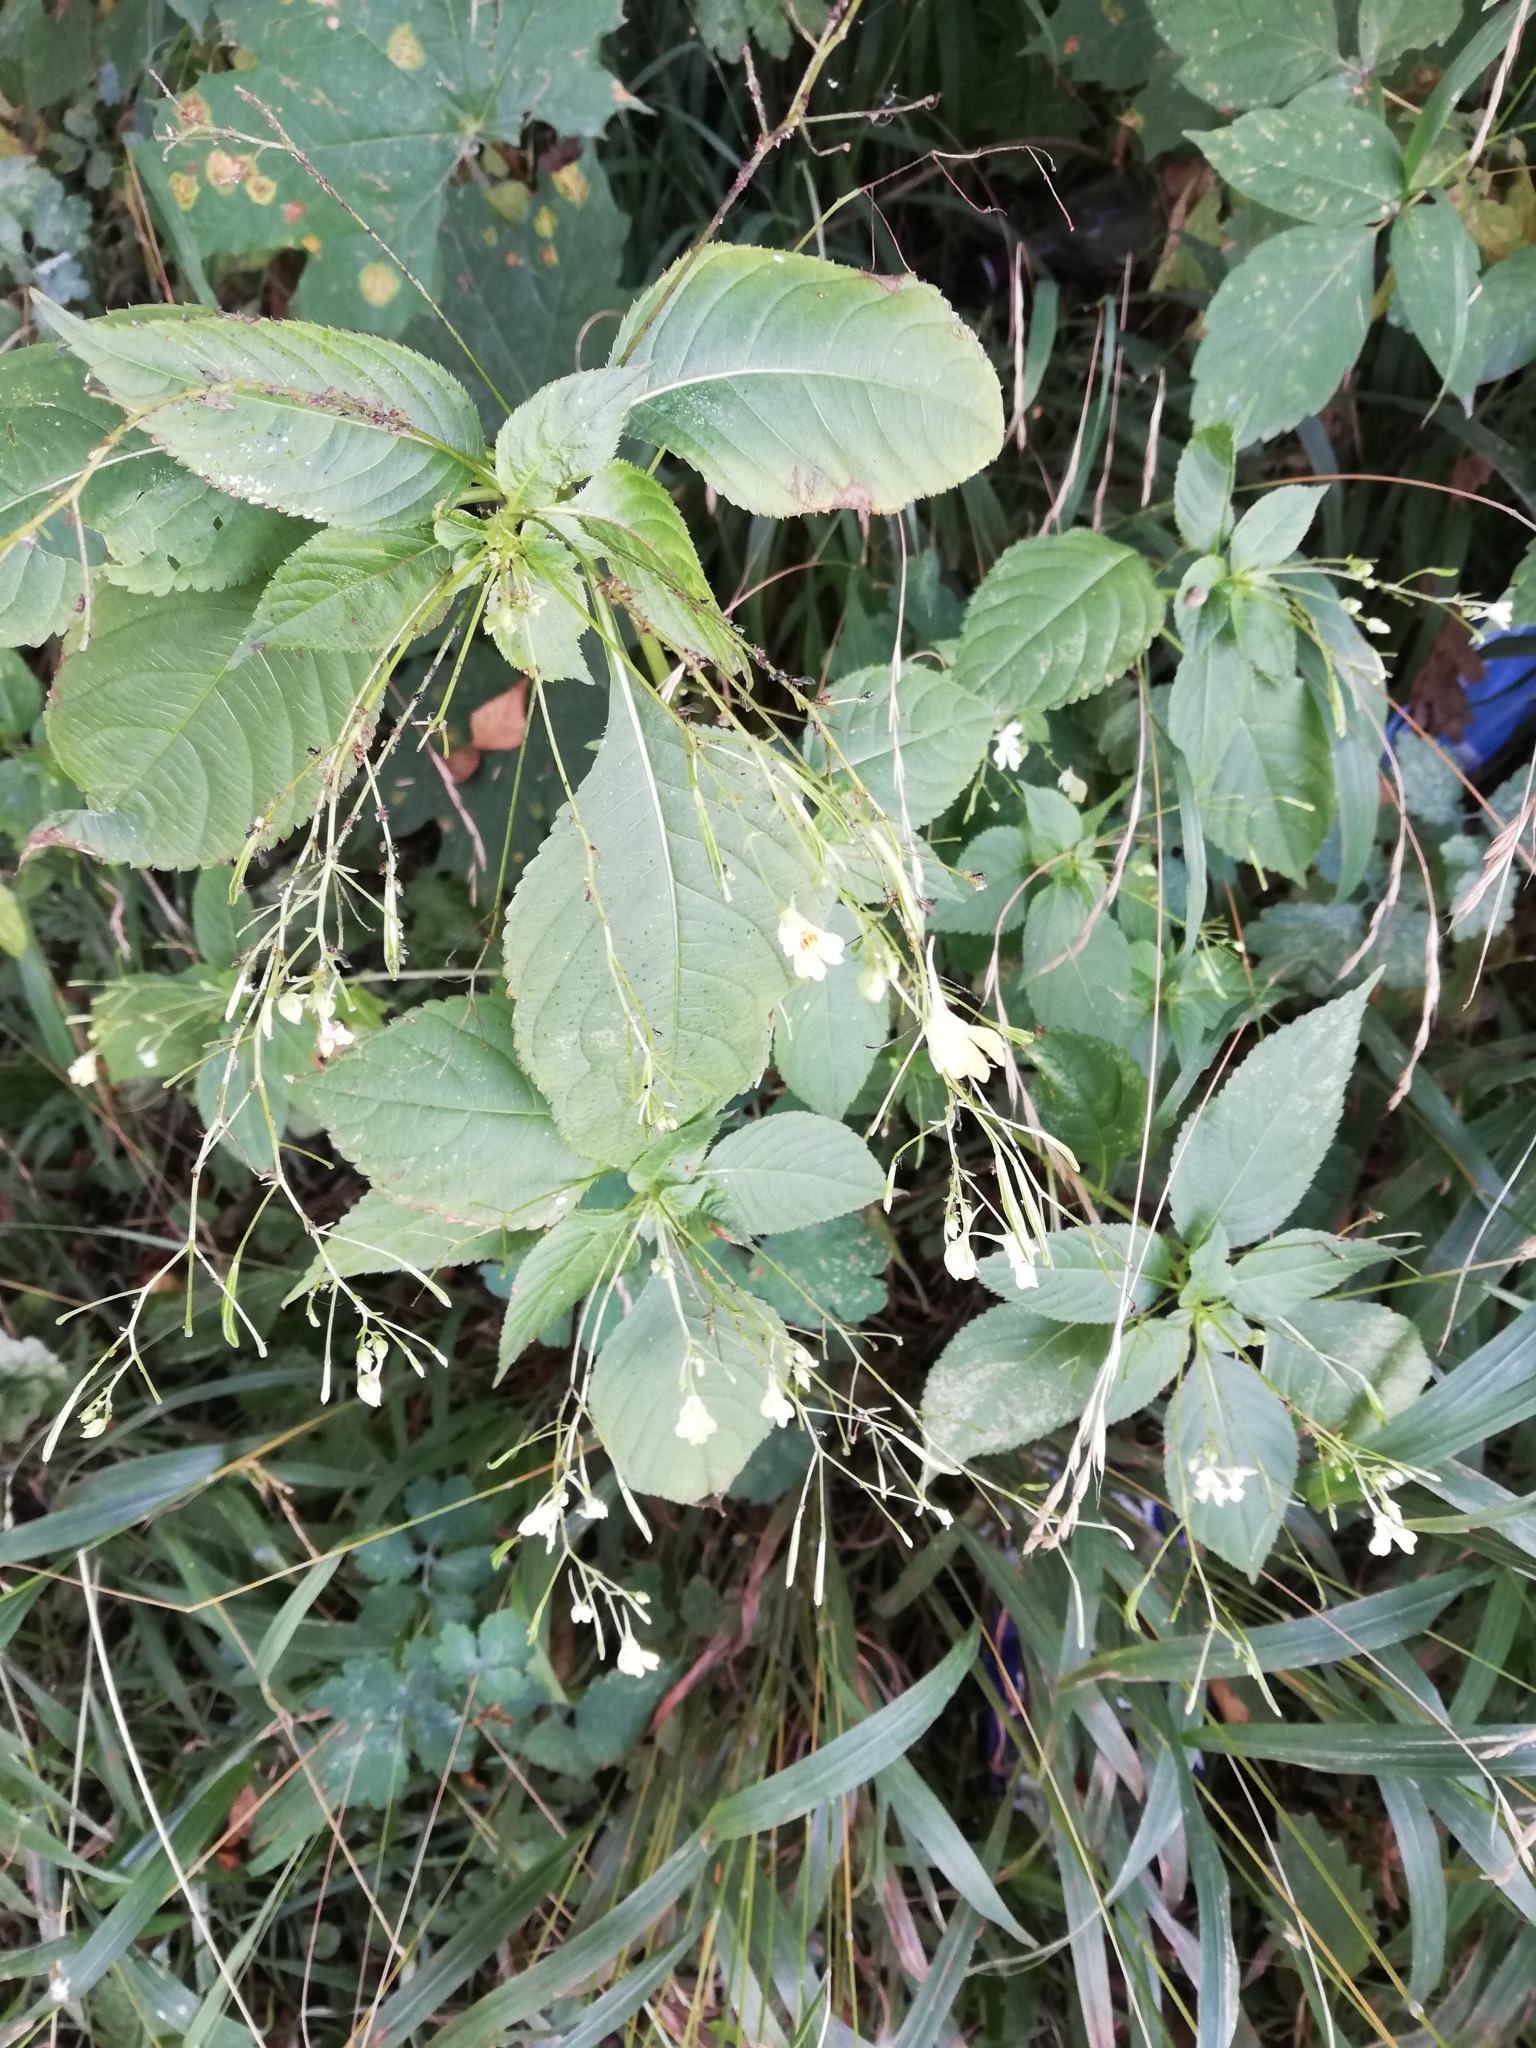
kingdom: Plantae
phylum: Tracheophyta
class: Magnoliopsida
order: Ericales
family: Balsaminaceae
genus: Impatiens
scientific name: Impatiens parviflora
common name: Small balsam
